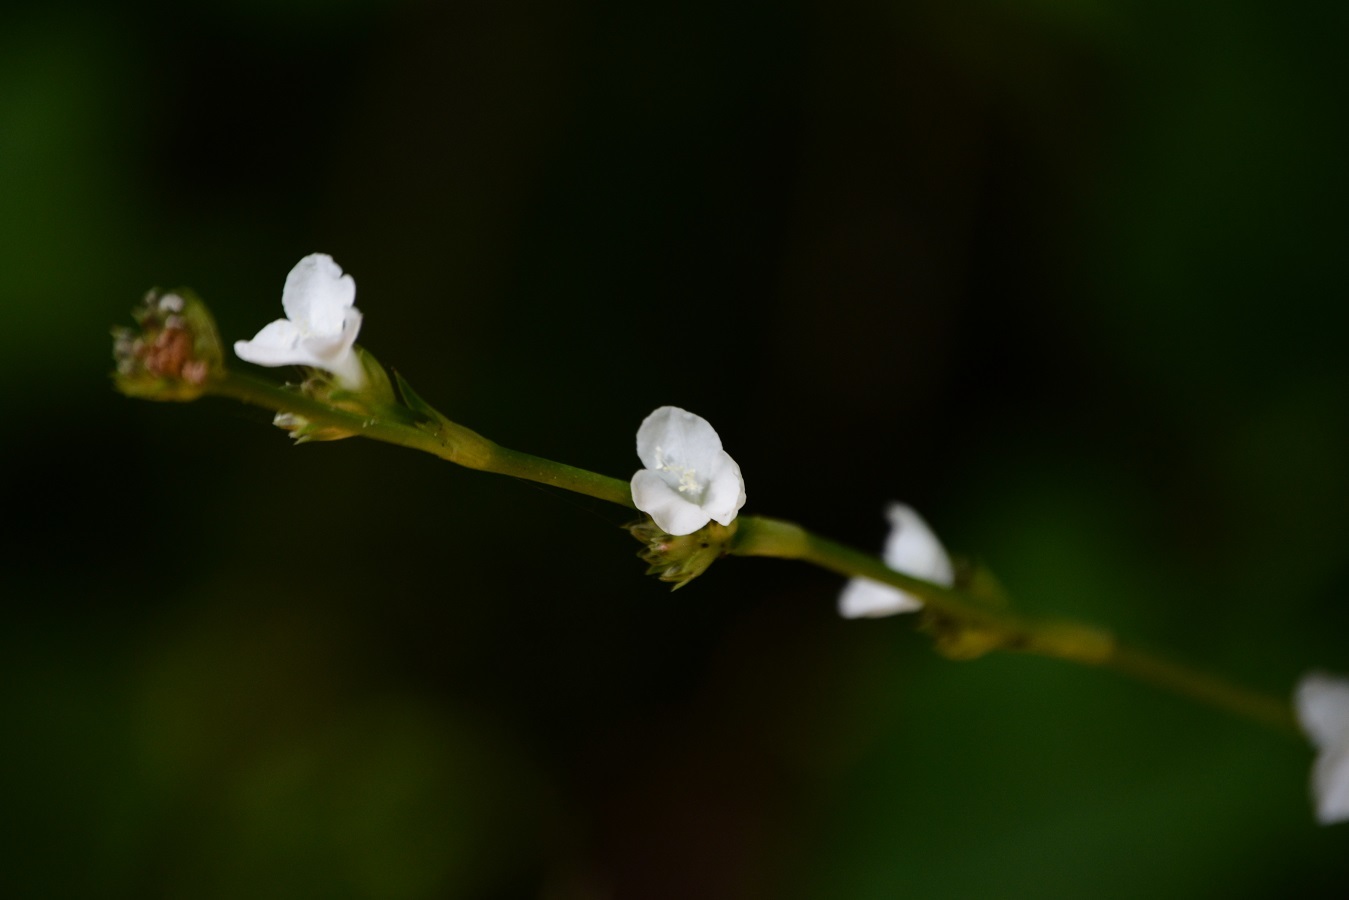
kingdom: Plantae
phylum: Tracheophyta
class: Liliopsida
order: Commelinales
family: Commelinaceae
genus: Callisia
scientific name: Callisia gentlei
